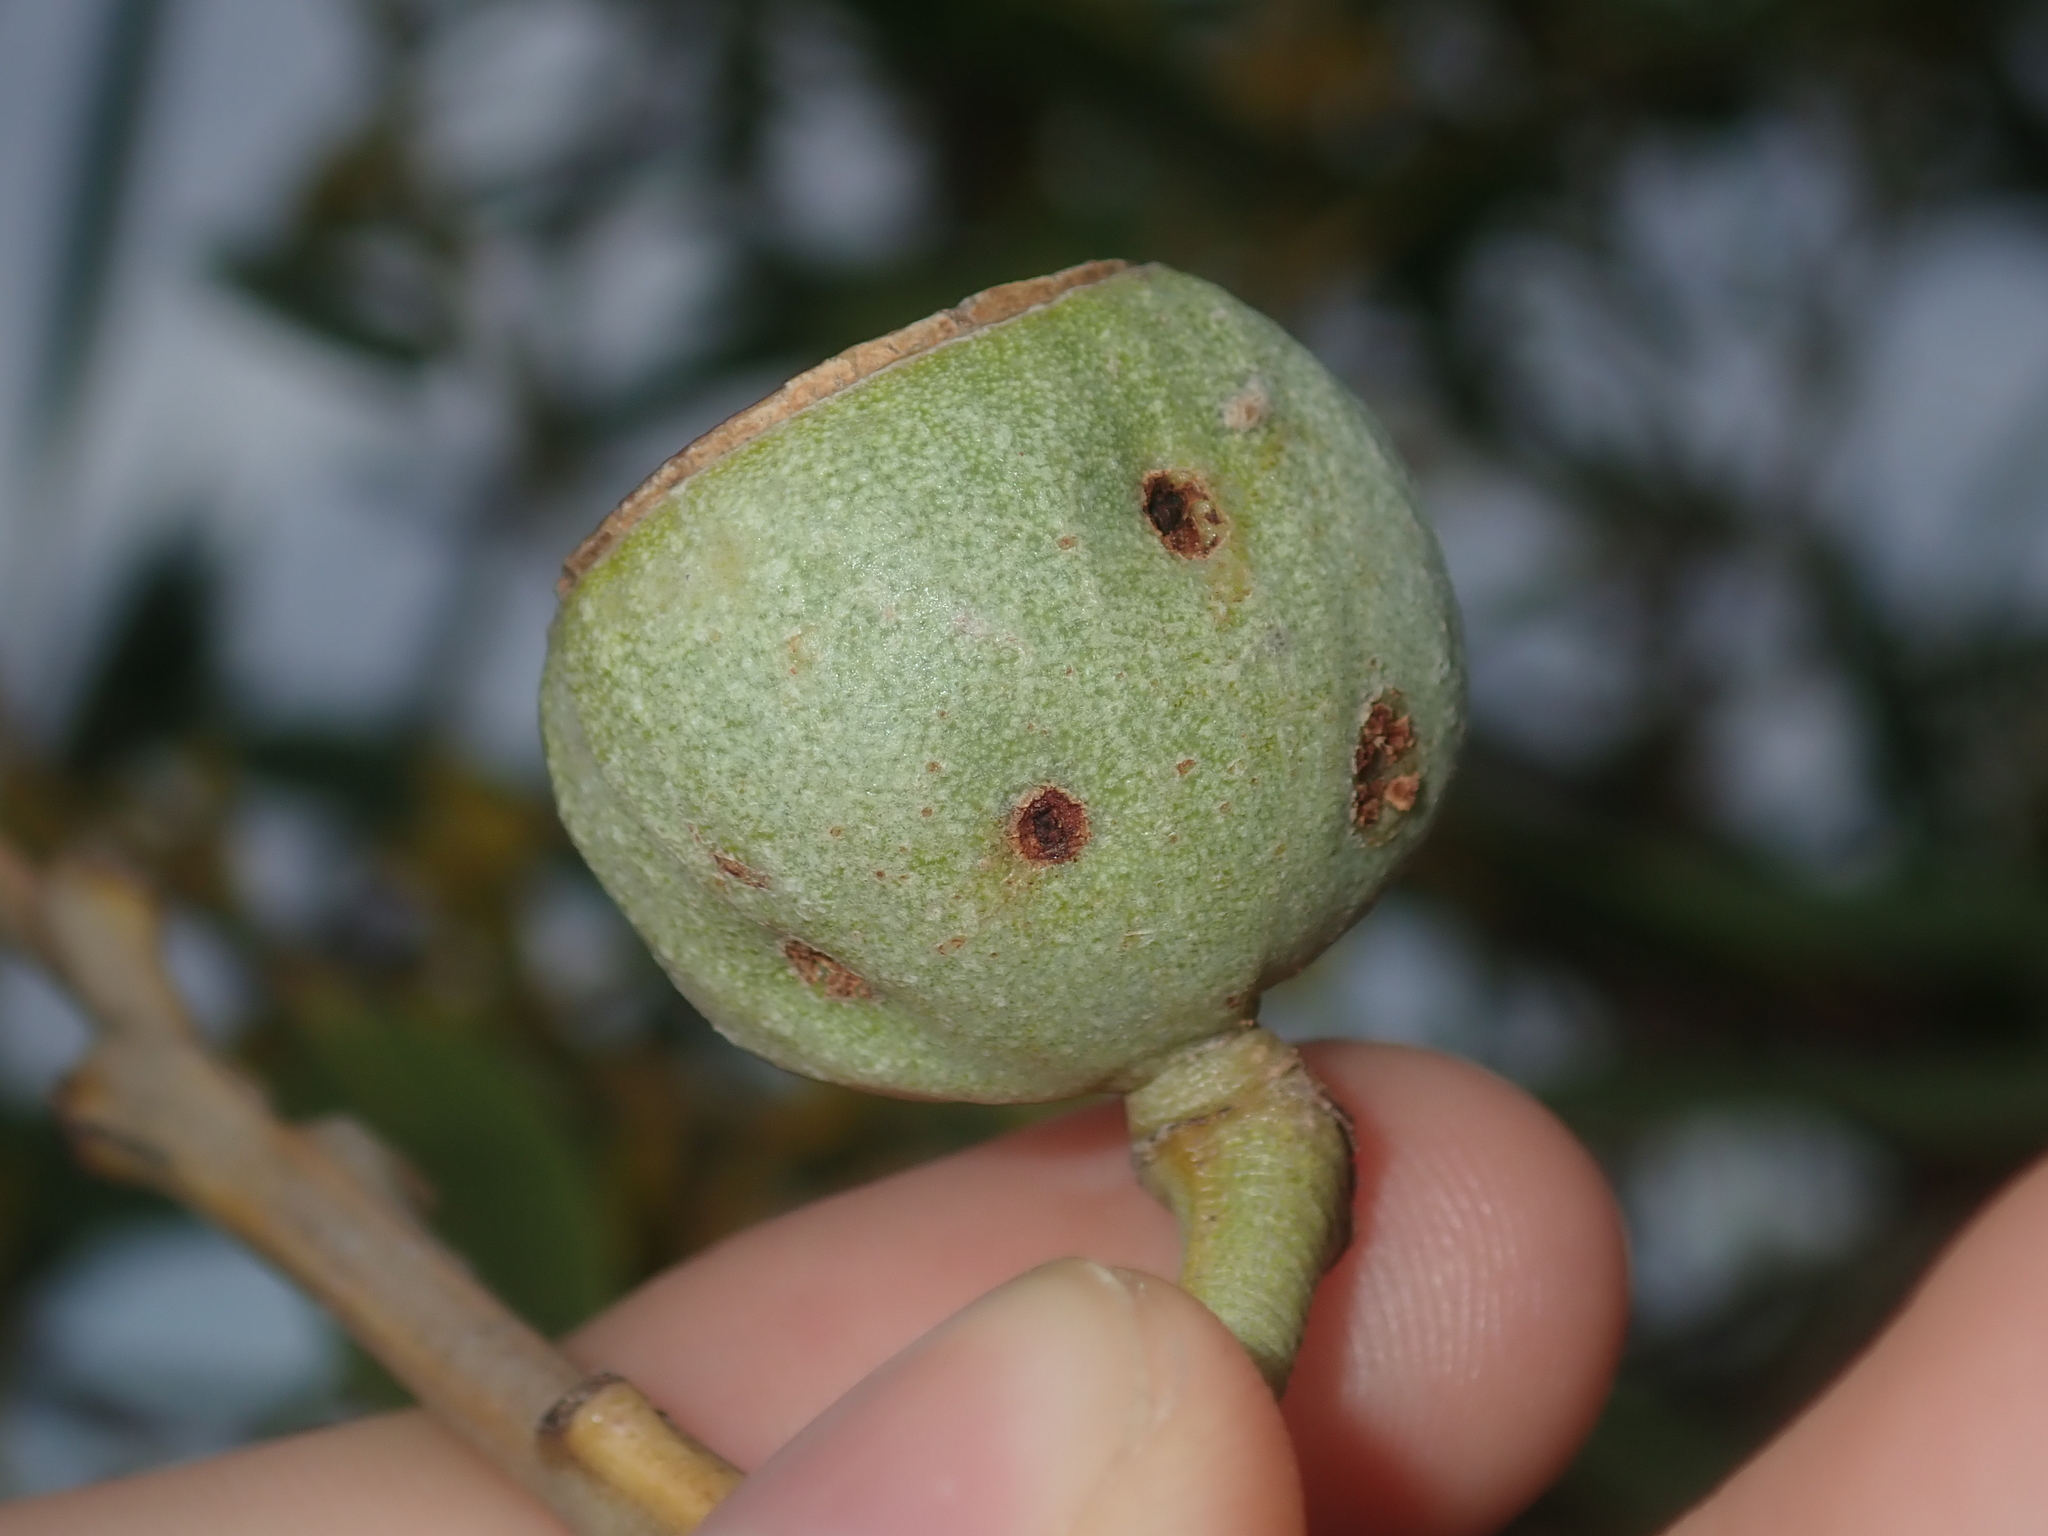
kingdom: Plantae
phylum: Tracheophyta
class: Magnoliopsida
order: Myrtales
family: Myrtaceae
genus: Eucalyptus
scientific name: Eucalyptus todtiana
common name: Coastal blackbutt
